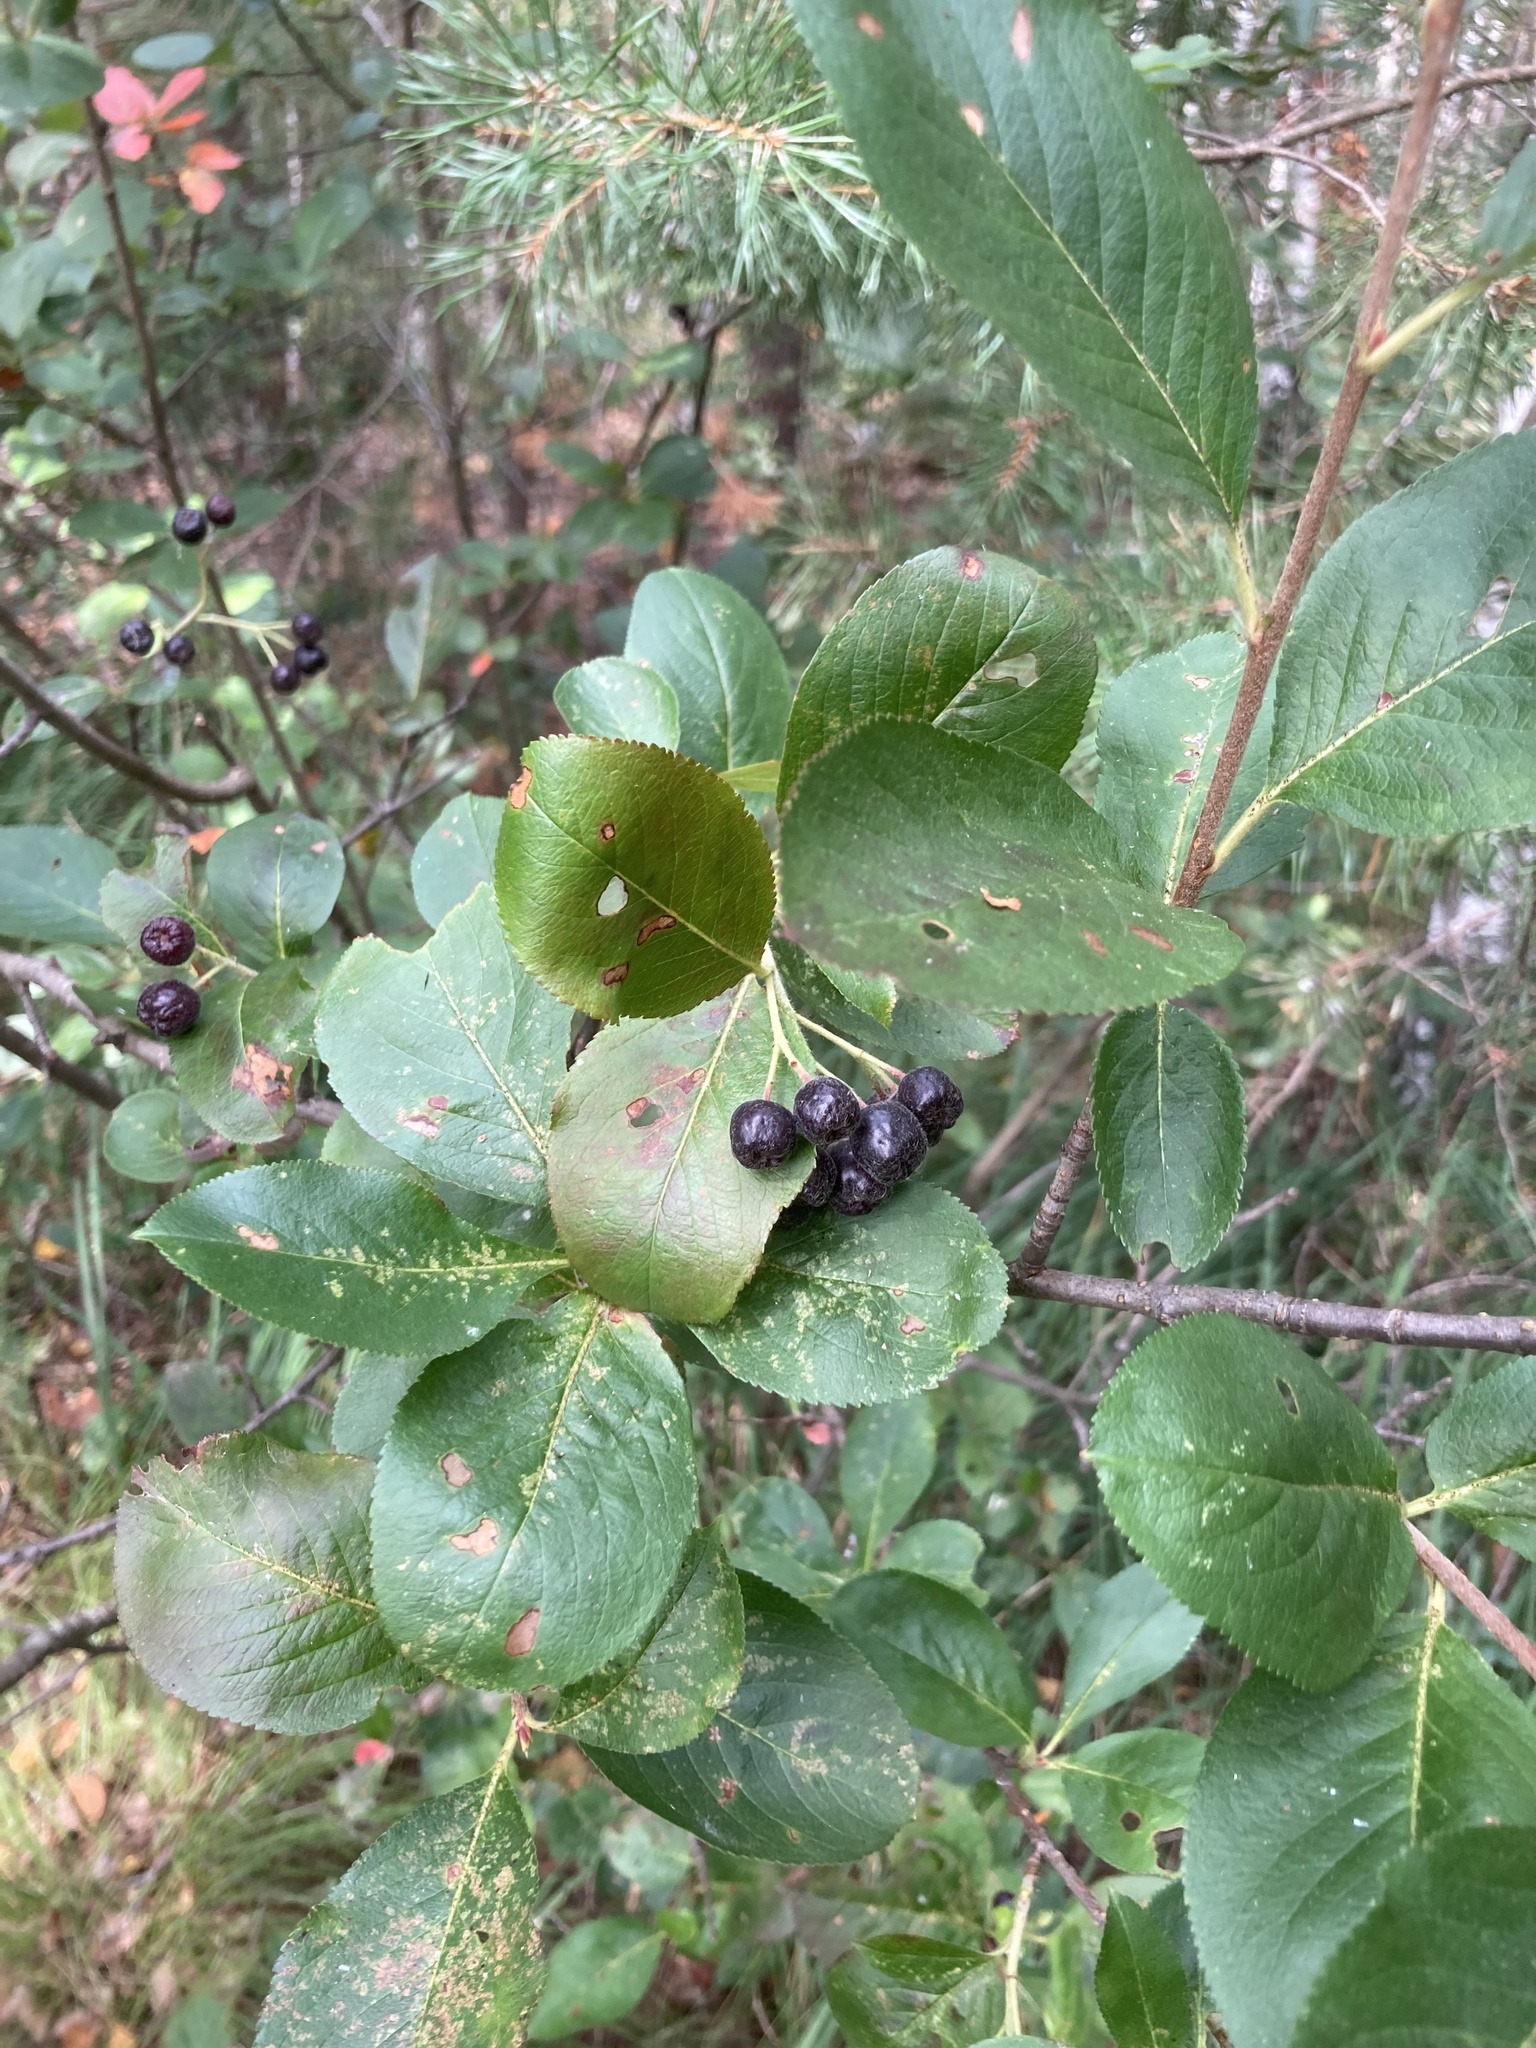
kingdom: Plantae
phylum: Tracheophyta
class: Magnoliopsida
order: Rosales
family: Rosaceae
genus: Sorbaronia
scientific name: Sorbaronia arsenii
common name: Arsène's mountain-ash
